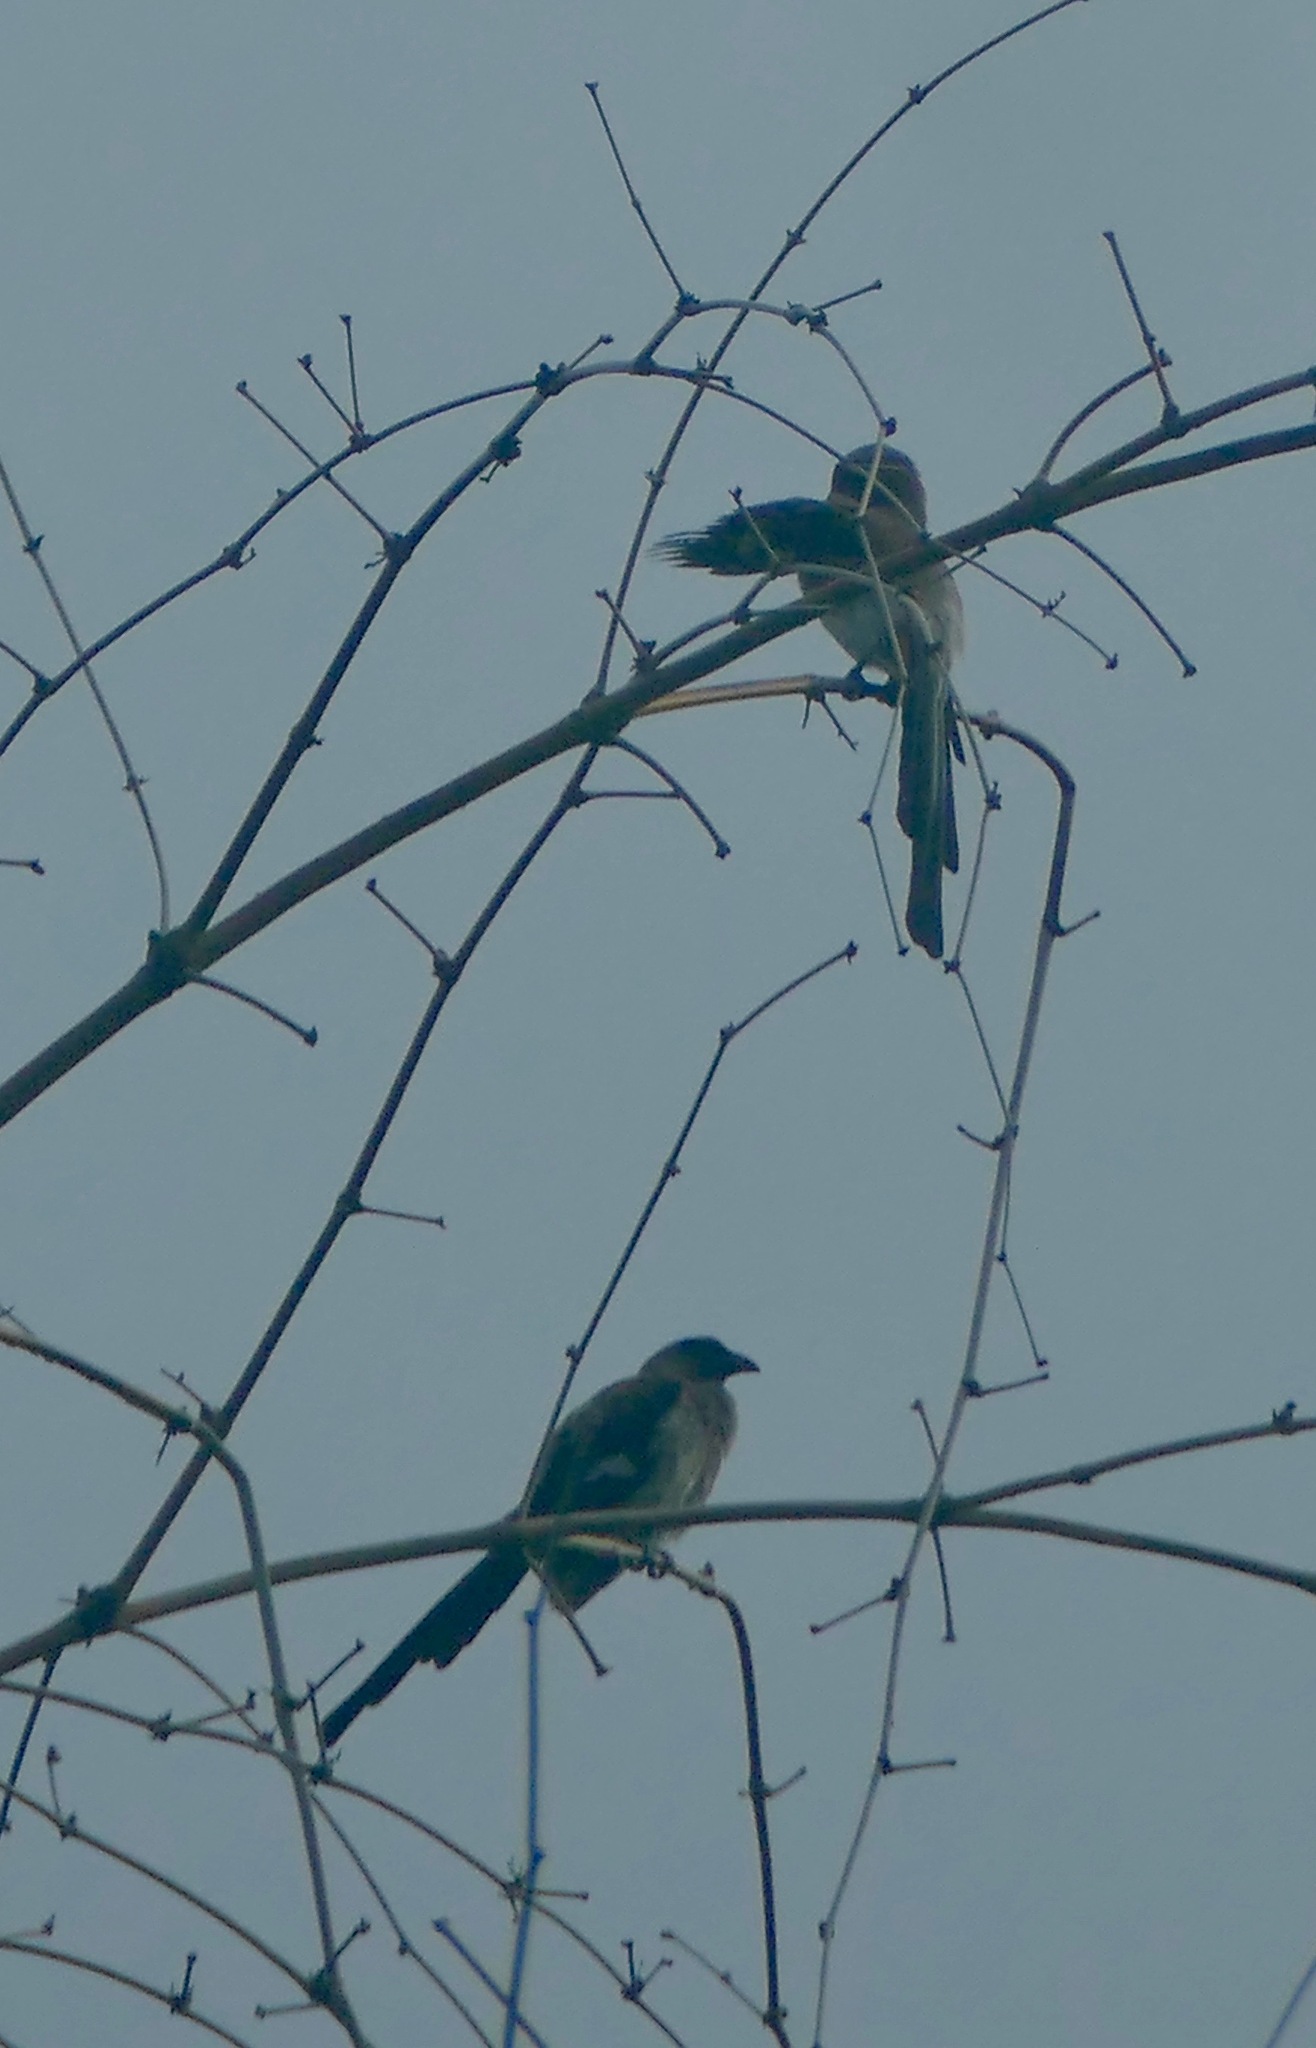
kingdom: Animalia
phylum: Chordata
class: Aves
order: Passeriformes
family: Corvidae
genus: Dendrocitta
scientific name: Dendrocitta formosae
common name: Grey treepie
